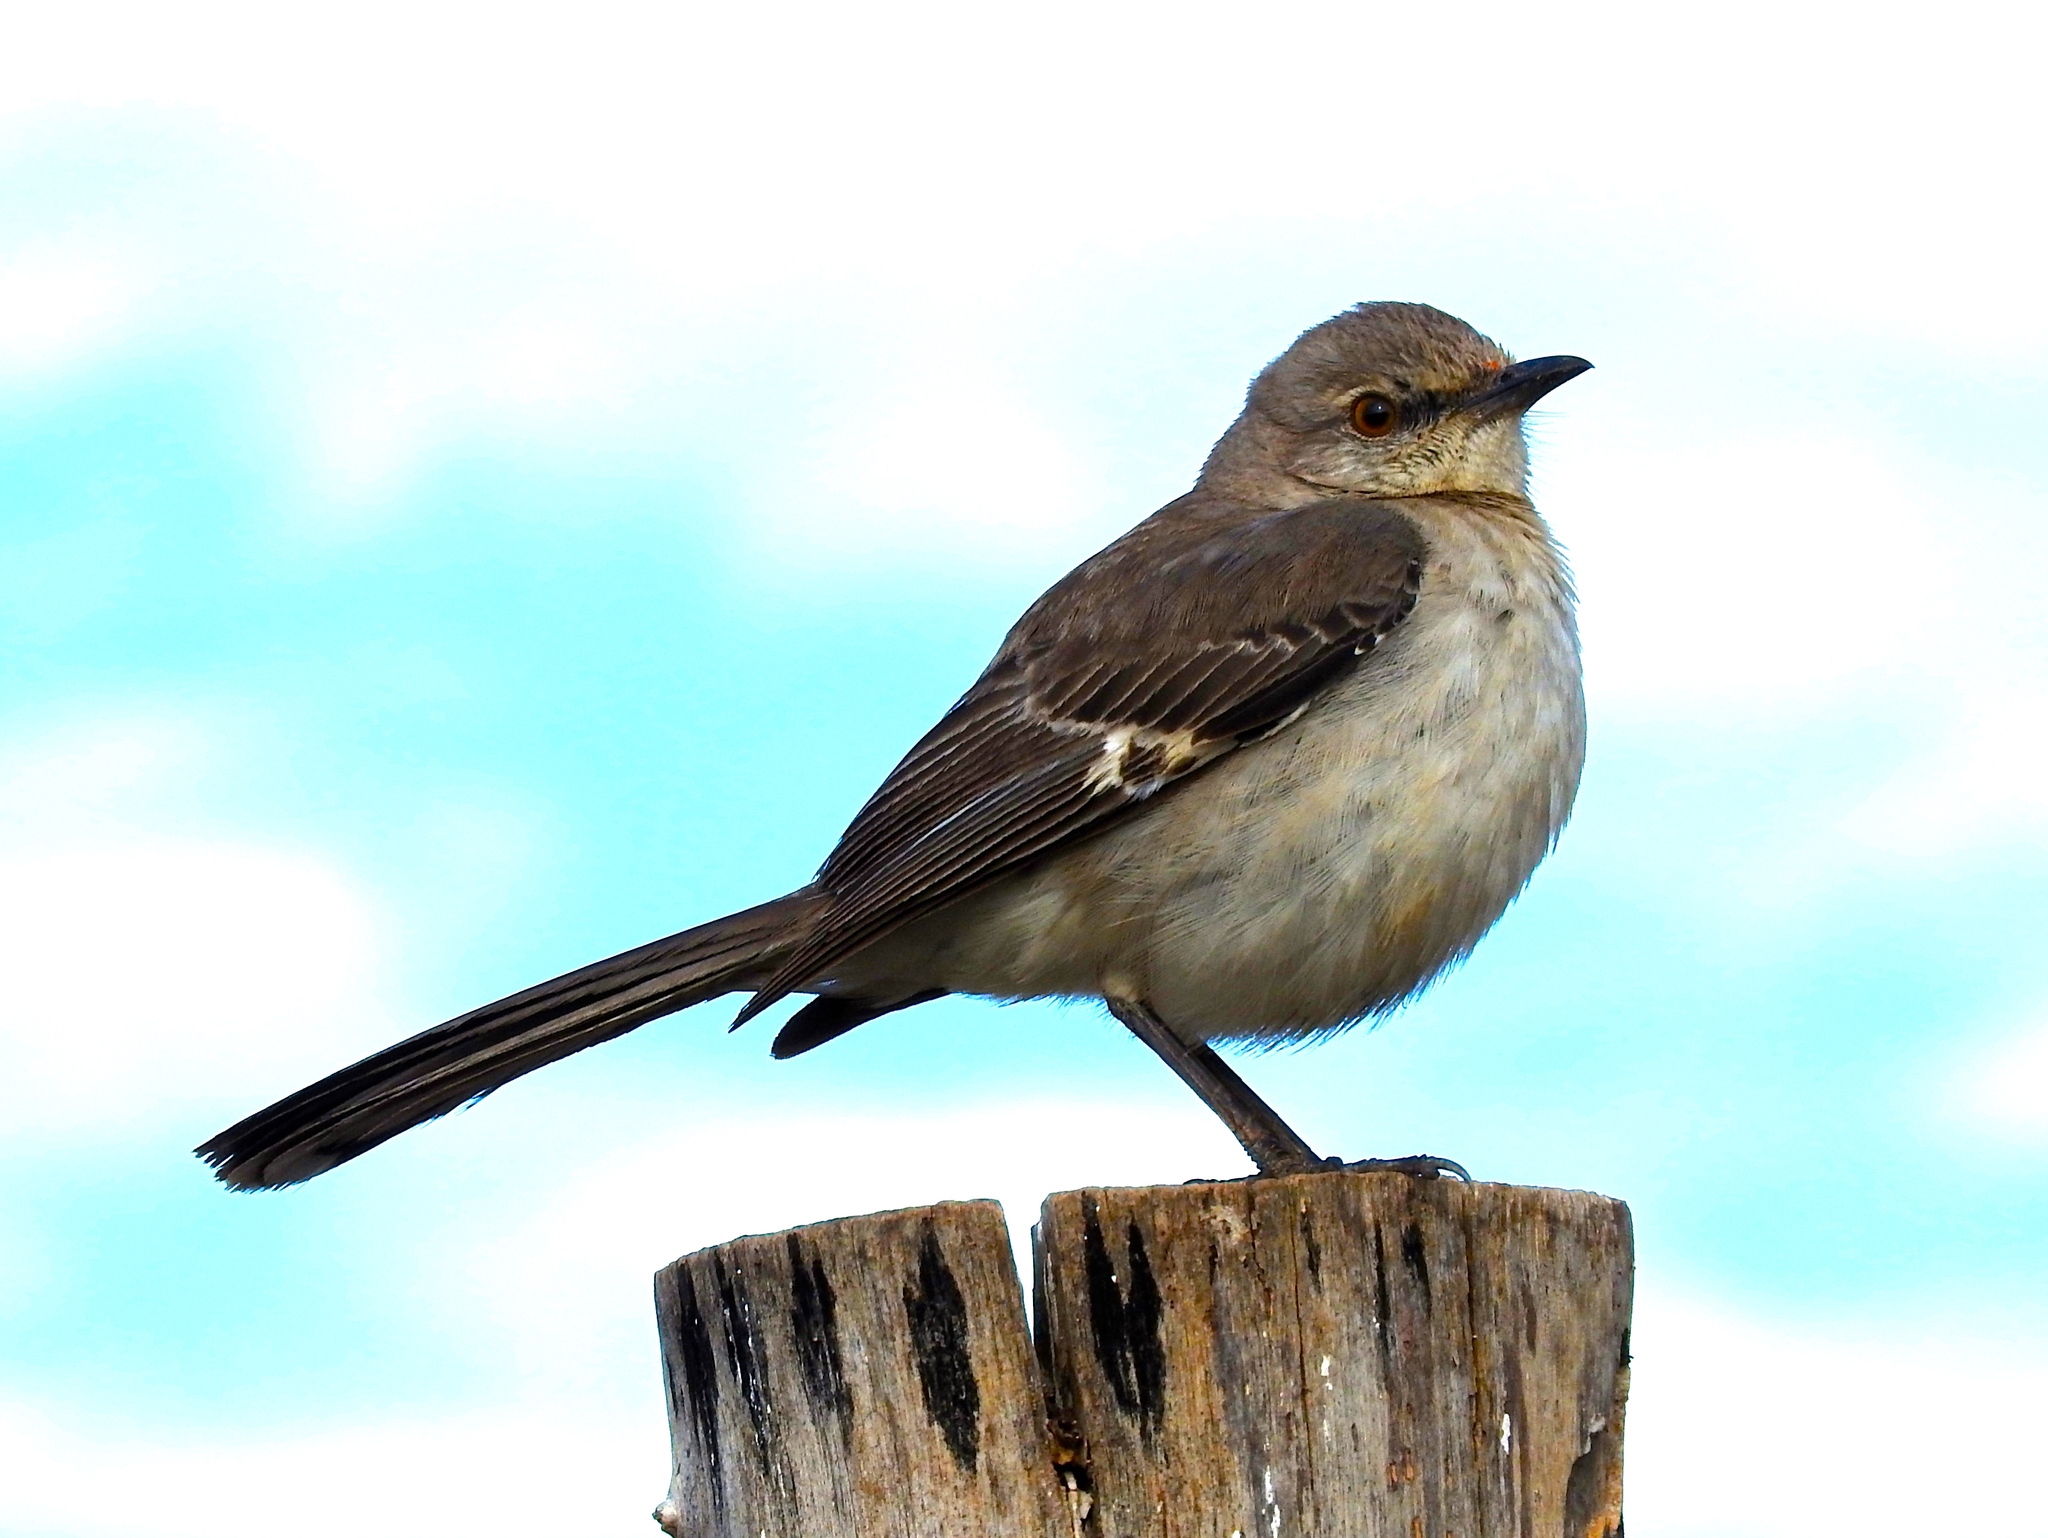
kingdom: Animalia
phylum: Chordata
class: Aves
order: Passeriformes
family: Mimidae
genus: Mimus
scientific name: Mimus polyglottos
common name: Northern mockingbird
